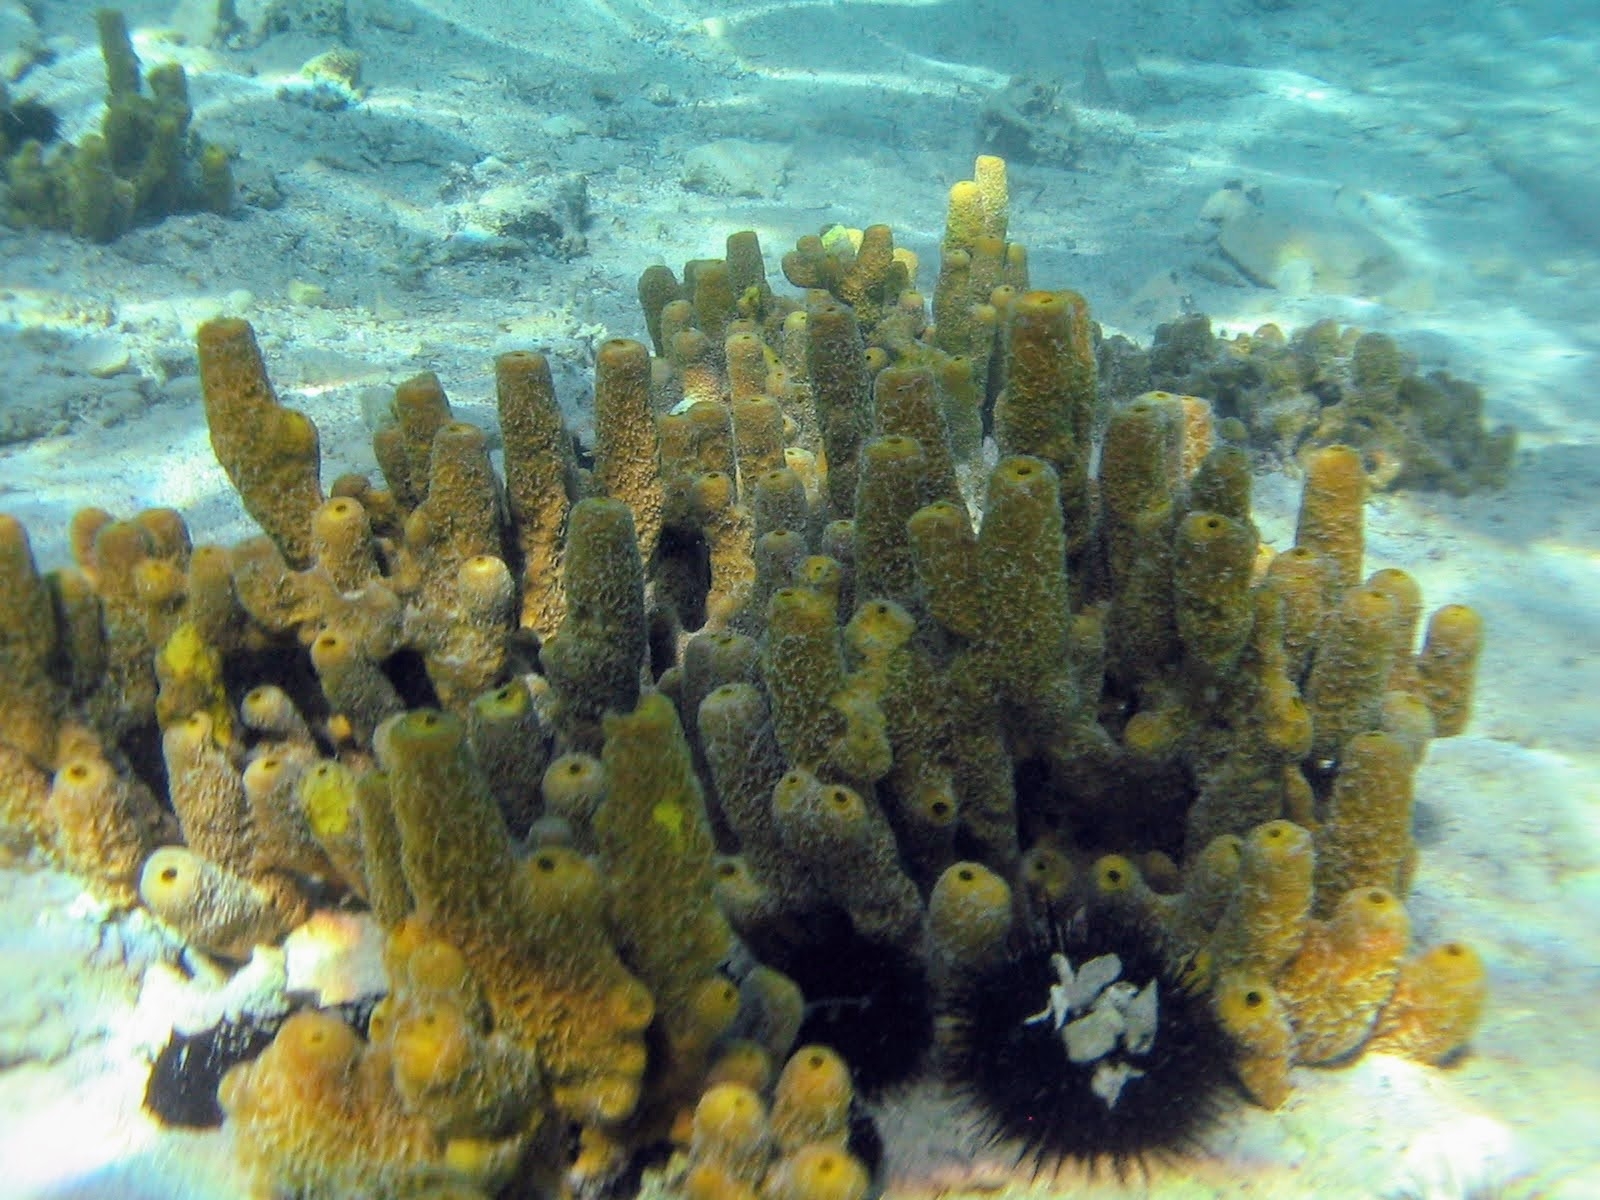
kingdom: Animalia
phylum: Porifera
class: Demospongiae
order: Verongiida
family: Aplysinidae
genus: Aplysina
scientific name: Aplysina aerophoba
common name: Aureate sponge
